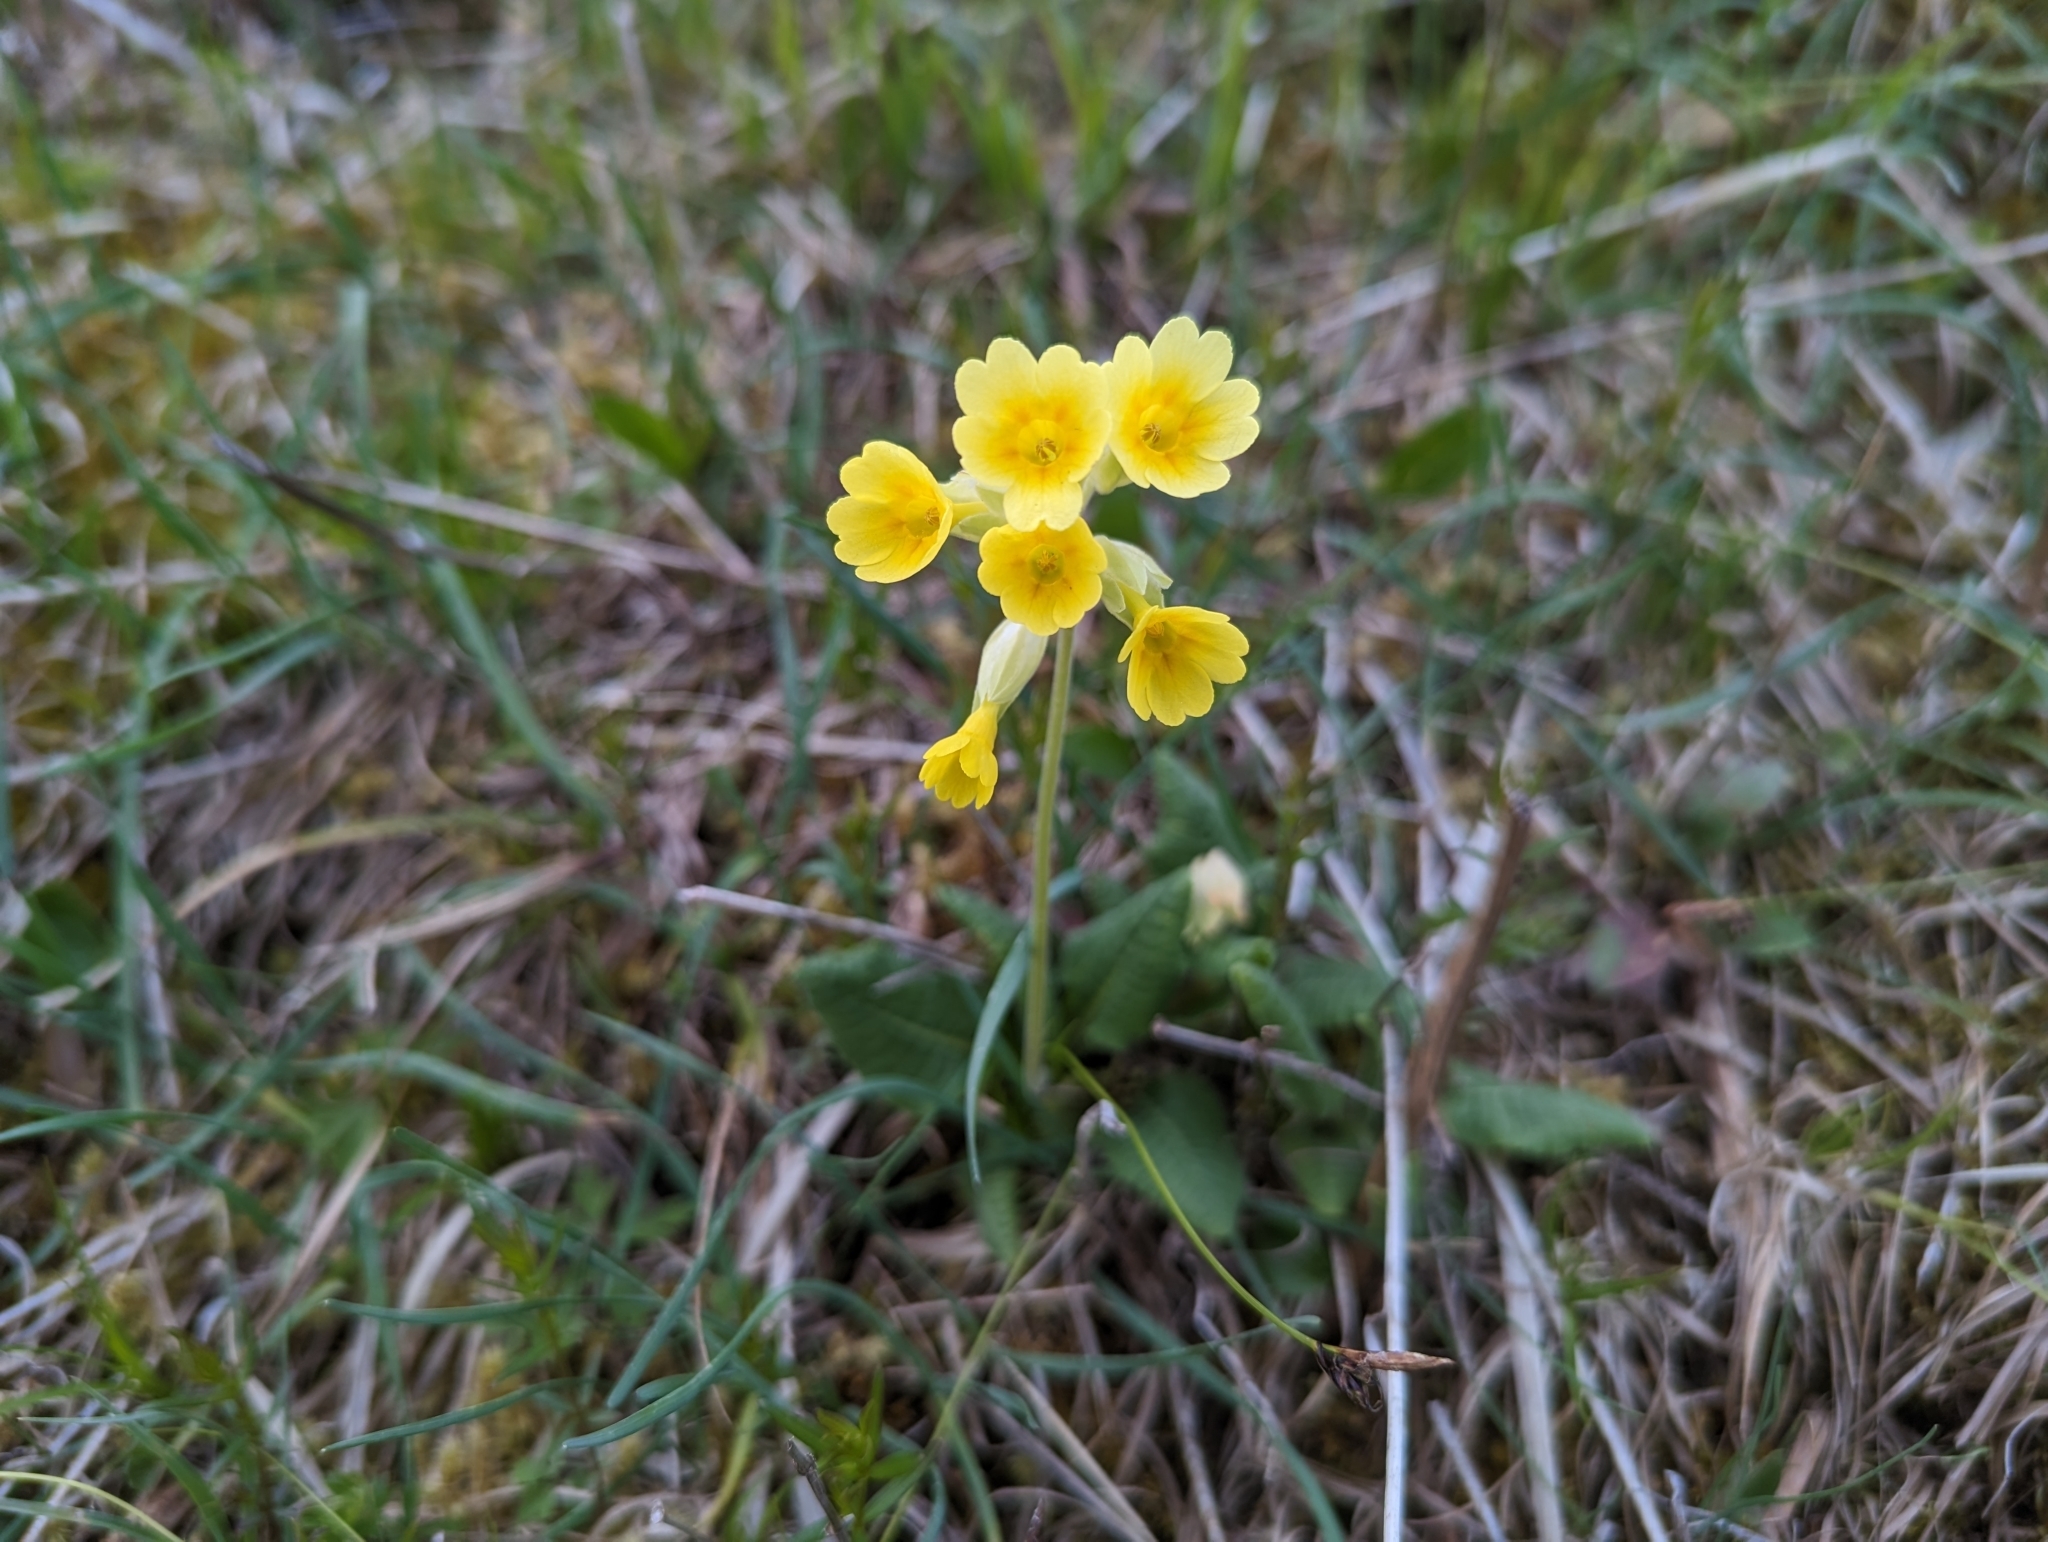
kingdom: Plantae
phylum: Tracheophyta
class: Magnoliopsida
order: Ericales
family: Primulaceae
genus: Primula
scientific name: Primula veris
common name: Cowslip
